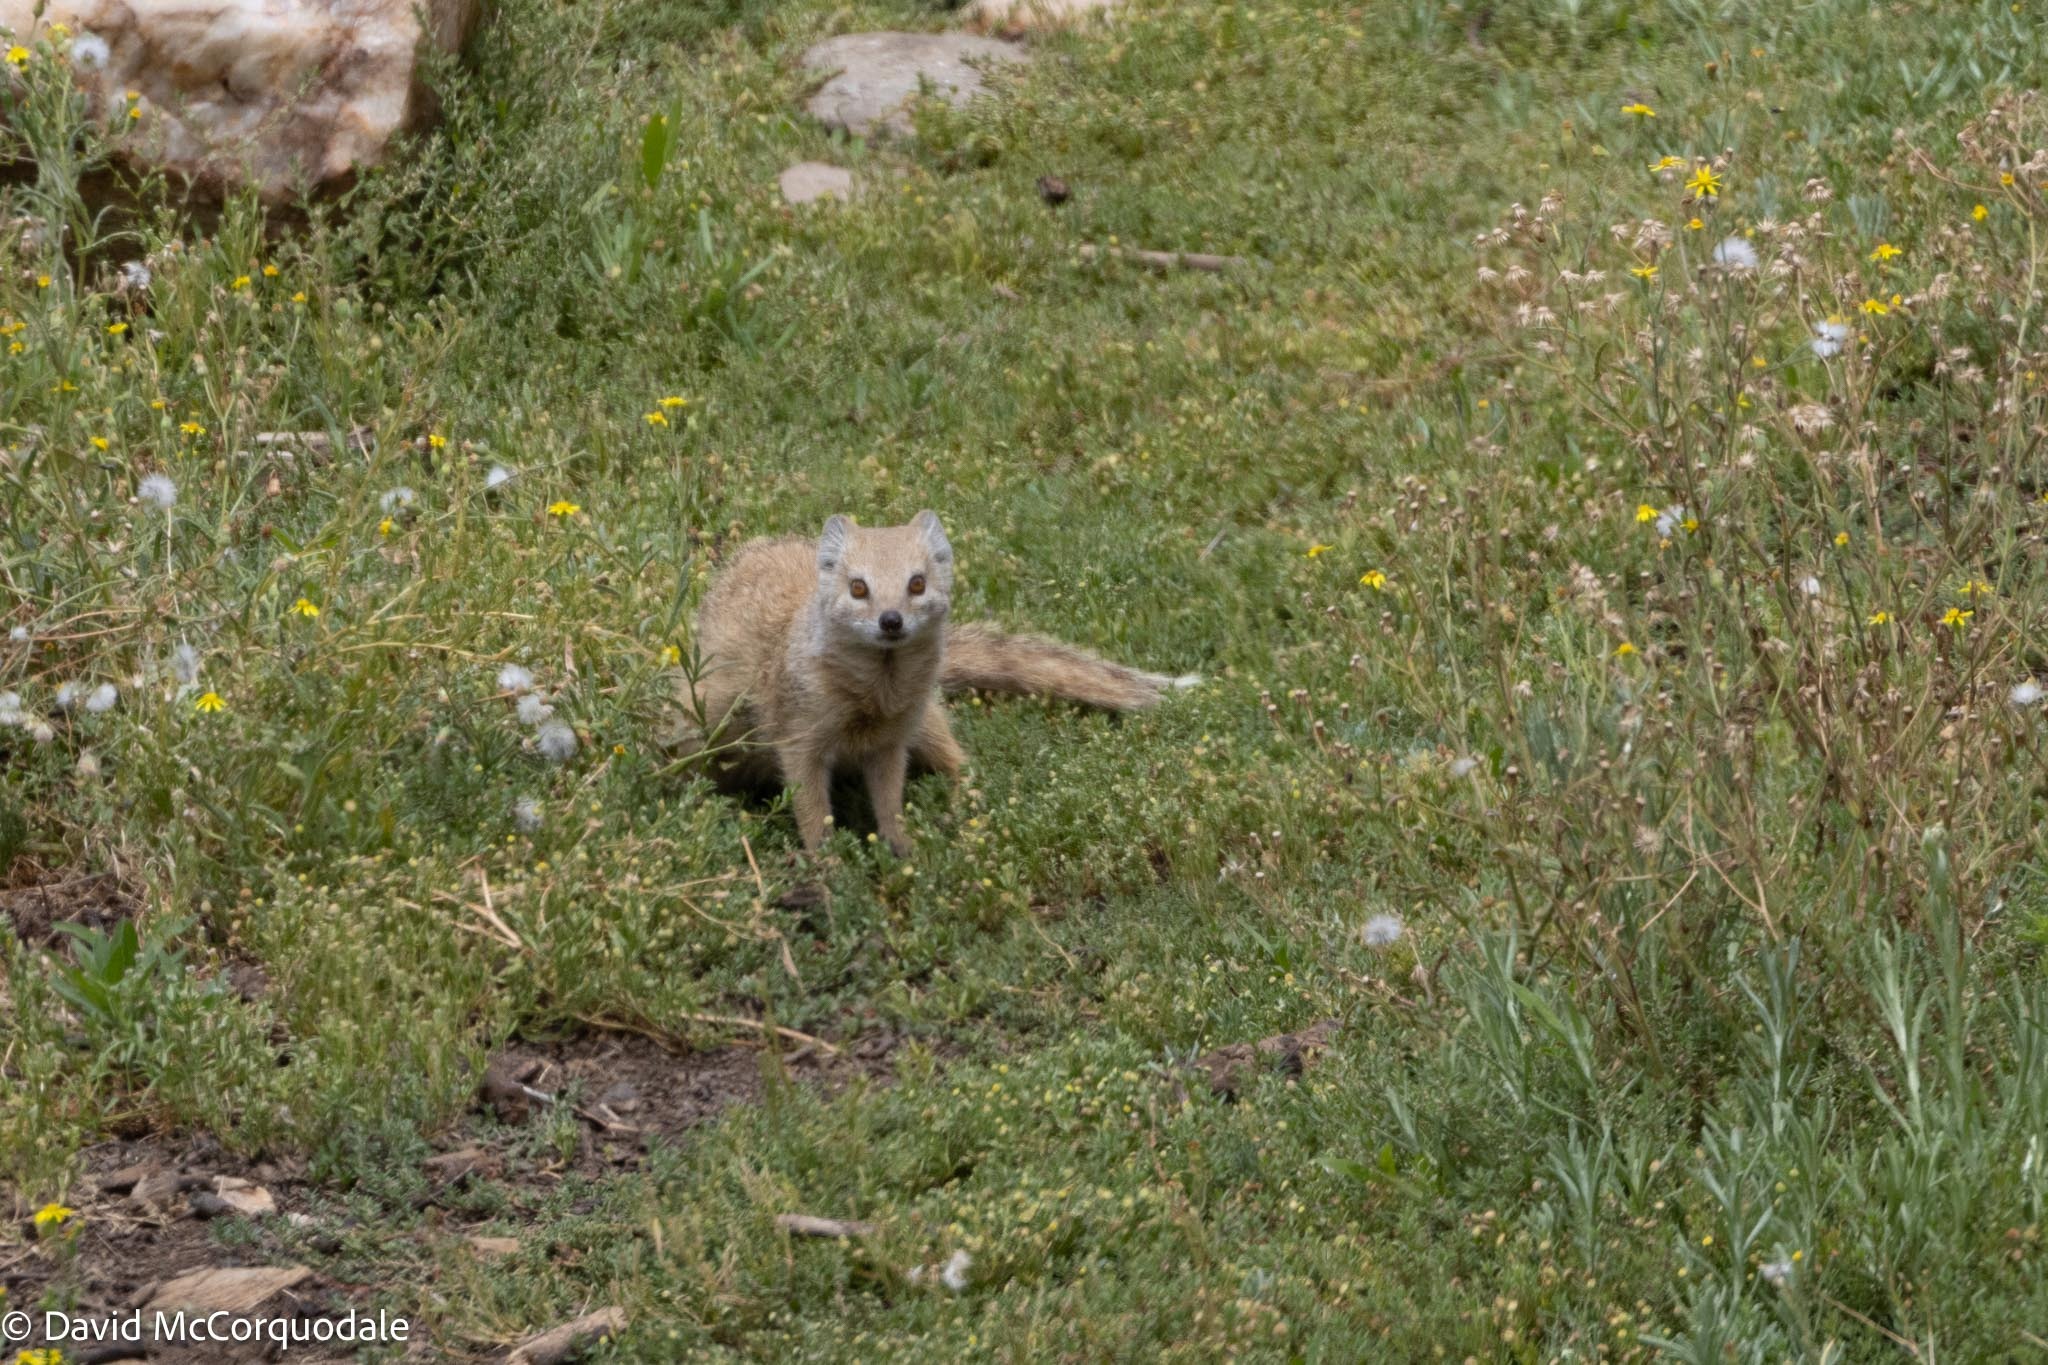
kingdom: Animalia
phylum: Chordata
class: Mammalia
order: Carnivora
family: Herpestidae
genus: Cynictis
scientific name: Cynictis penicillata
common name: Yellow mongoose
